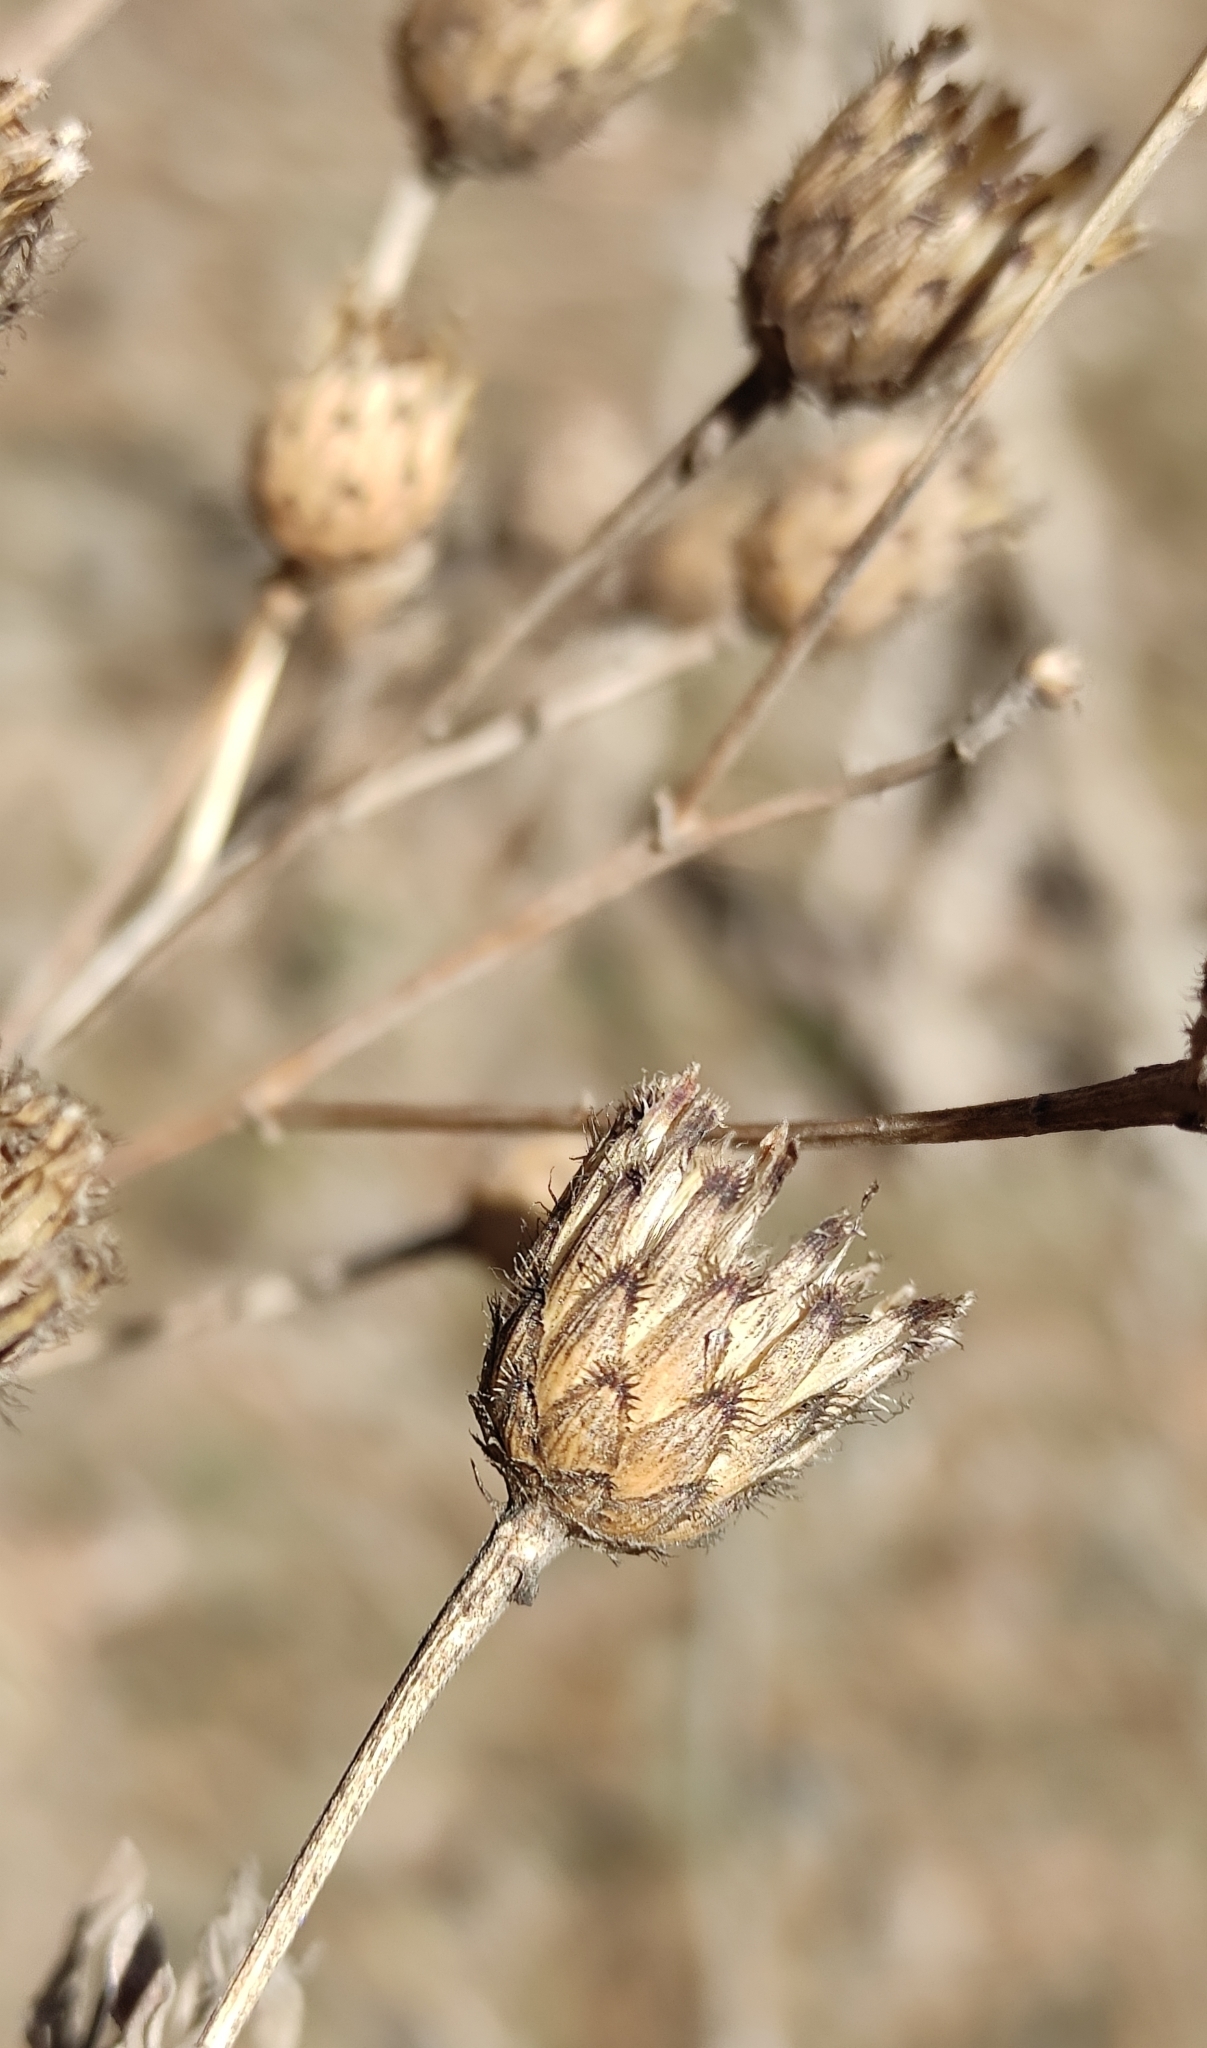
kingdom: Plantae
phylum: Tracheophyta
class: Magnoliopsida
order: Asterales
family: Asteraceae
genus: Centaurea
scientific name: Centaurea scabiosa
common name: Greater knapweed
